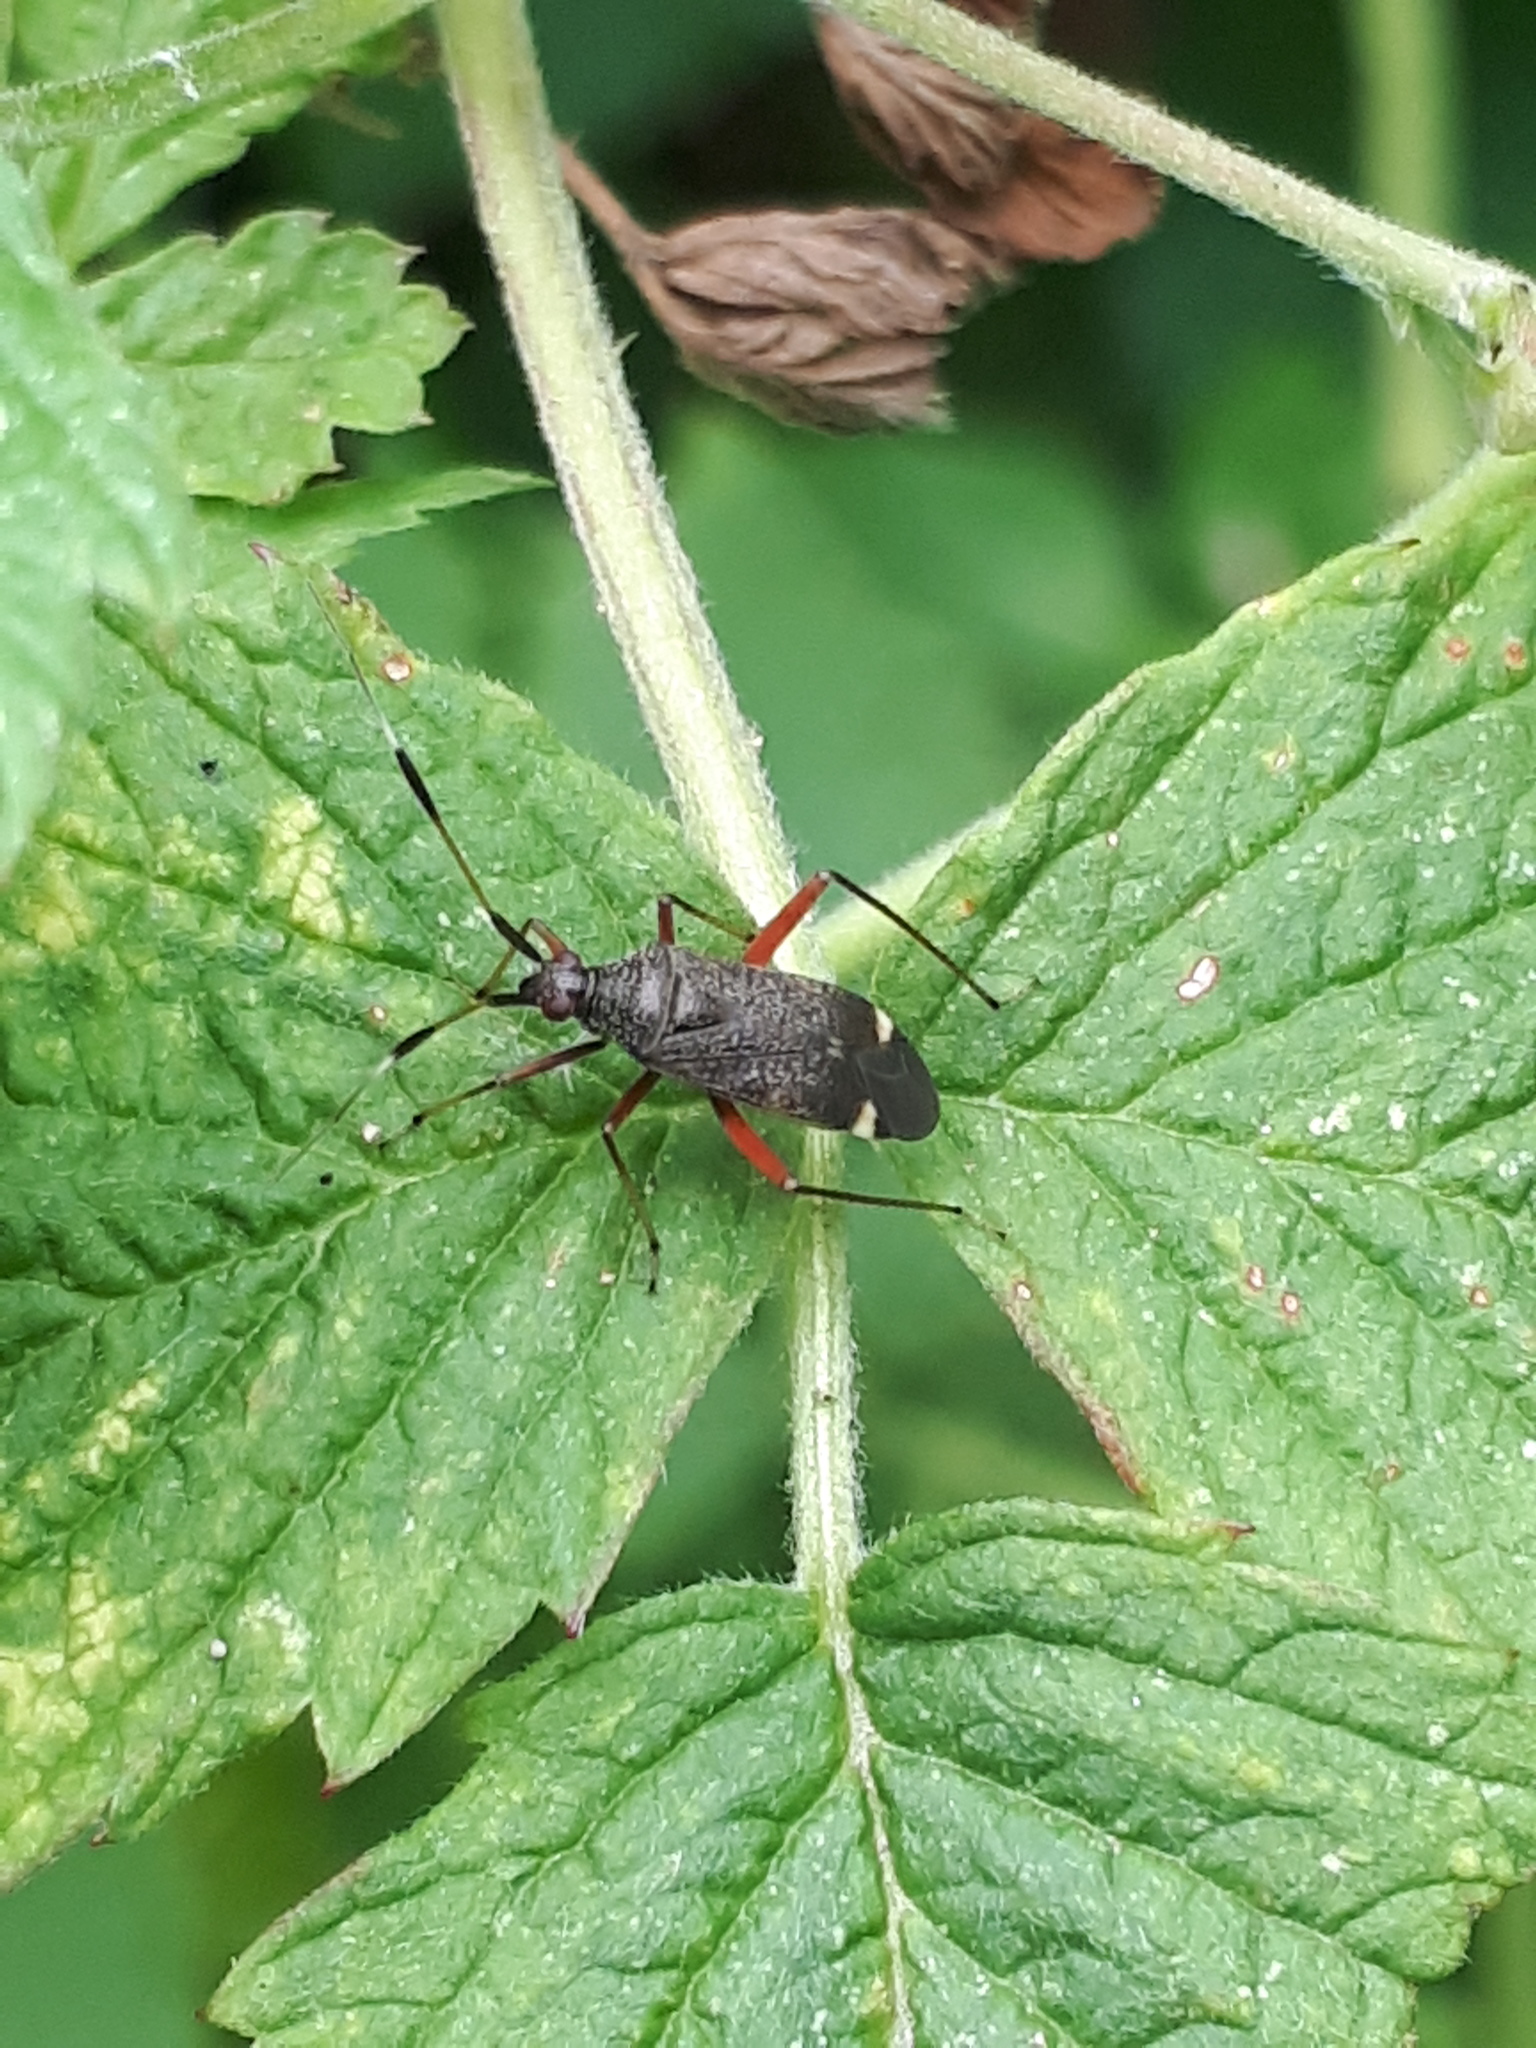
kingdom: Animalia
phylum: Arthropoda
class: Insecta
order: Hemiptera
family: Miridae
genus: Closterotomus
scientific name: Closterotomus biclavatus
